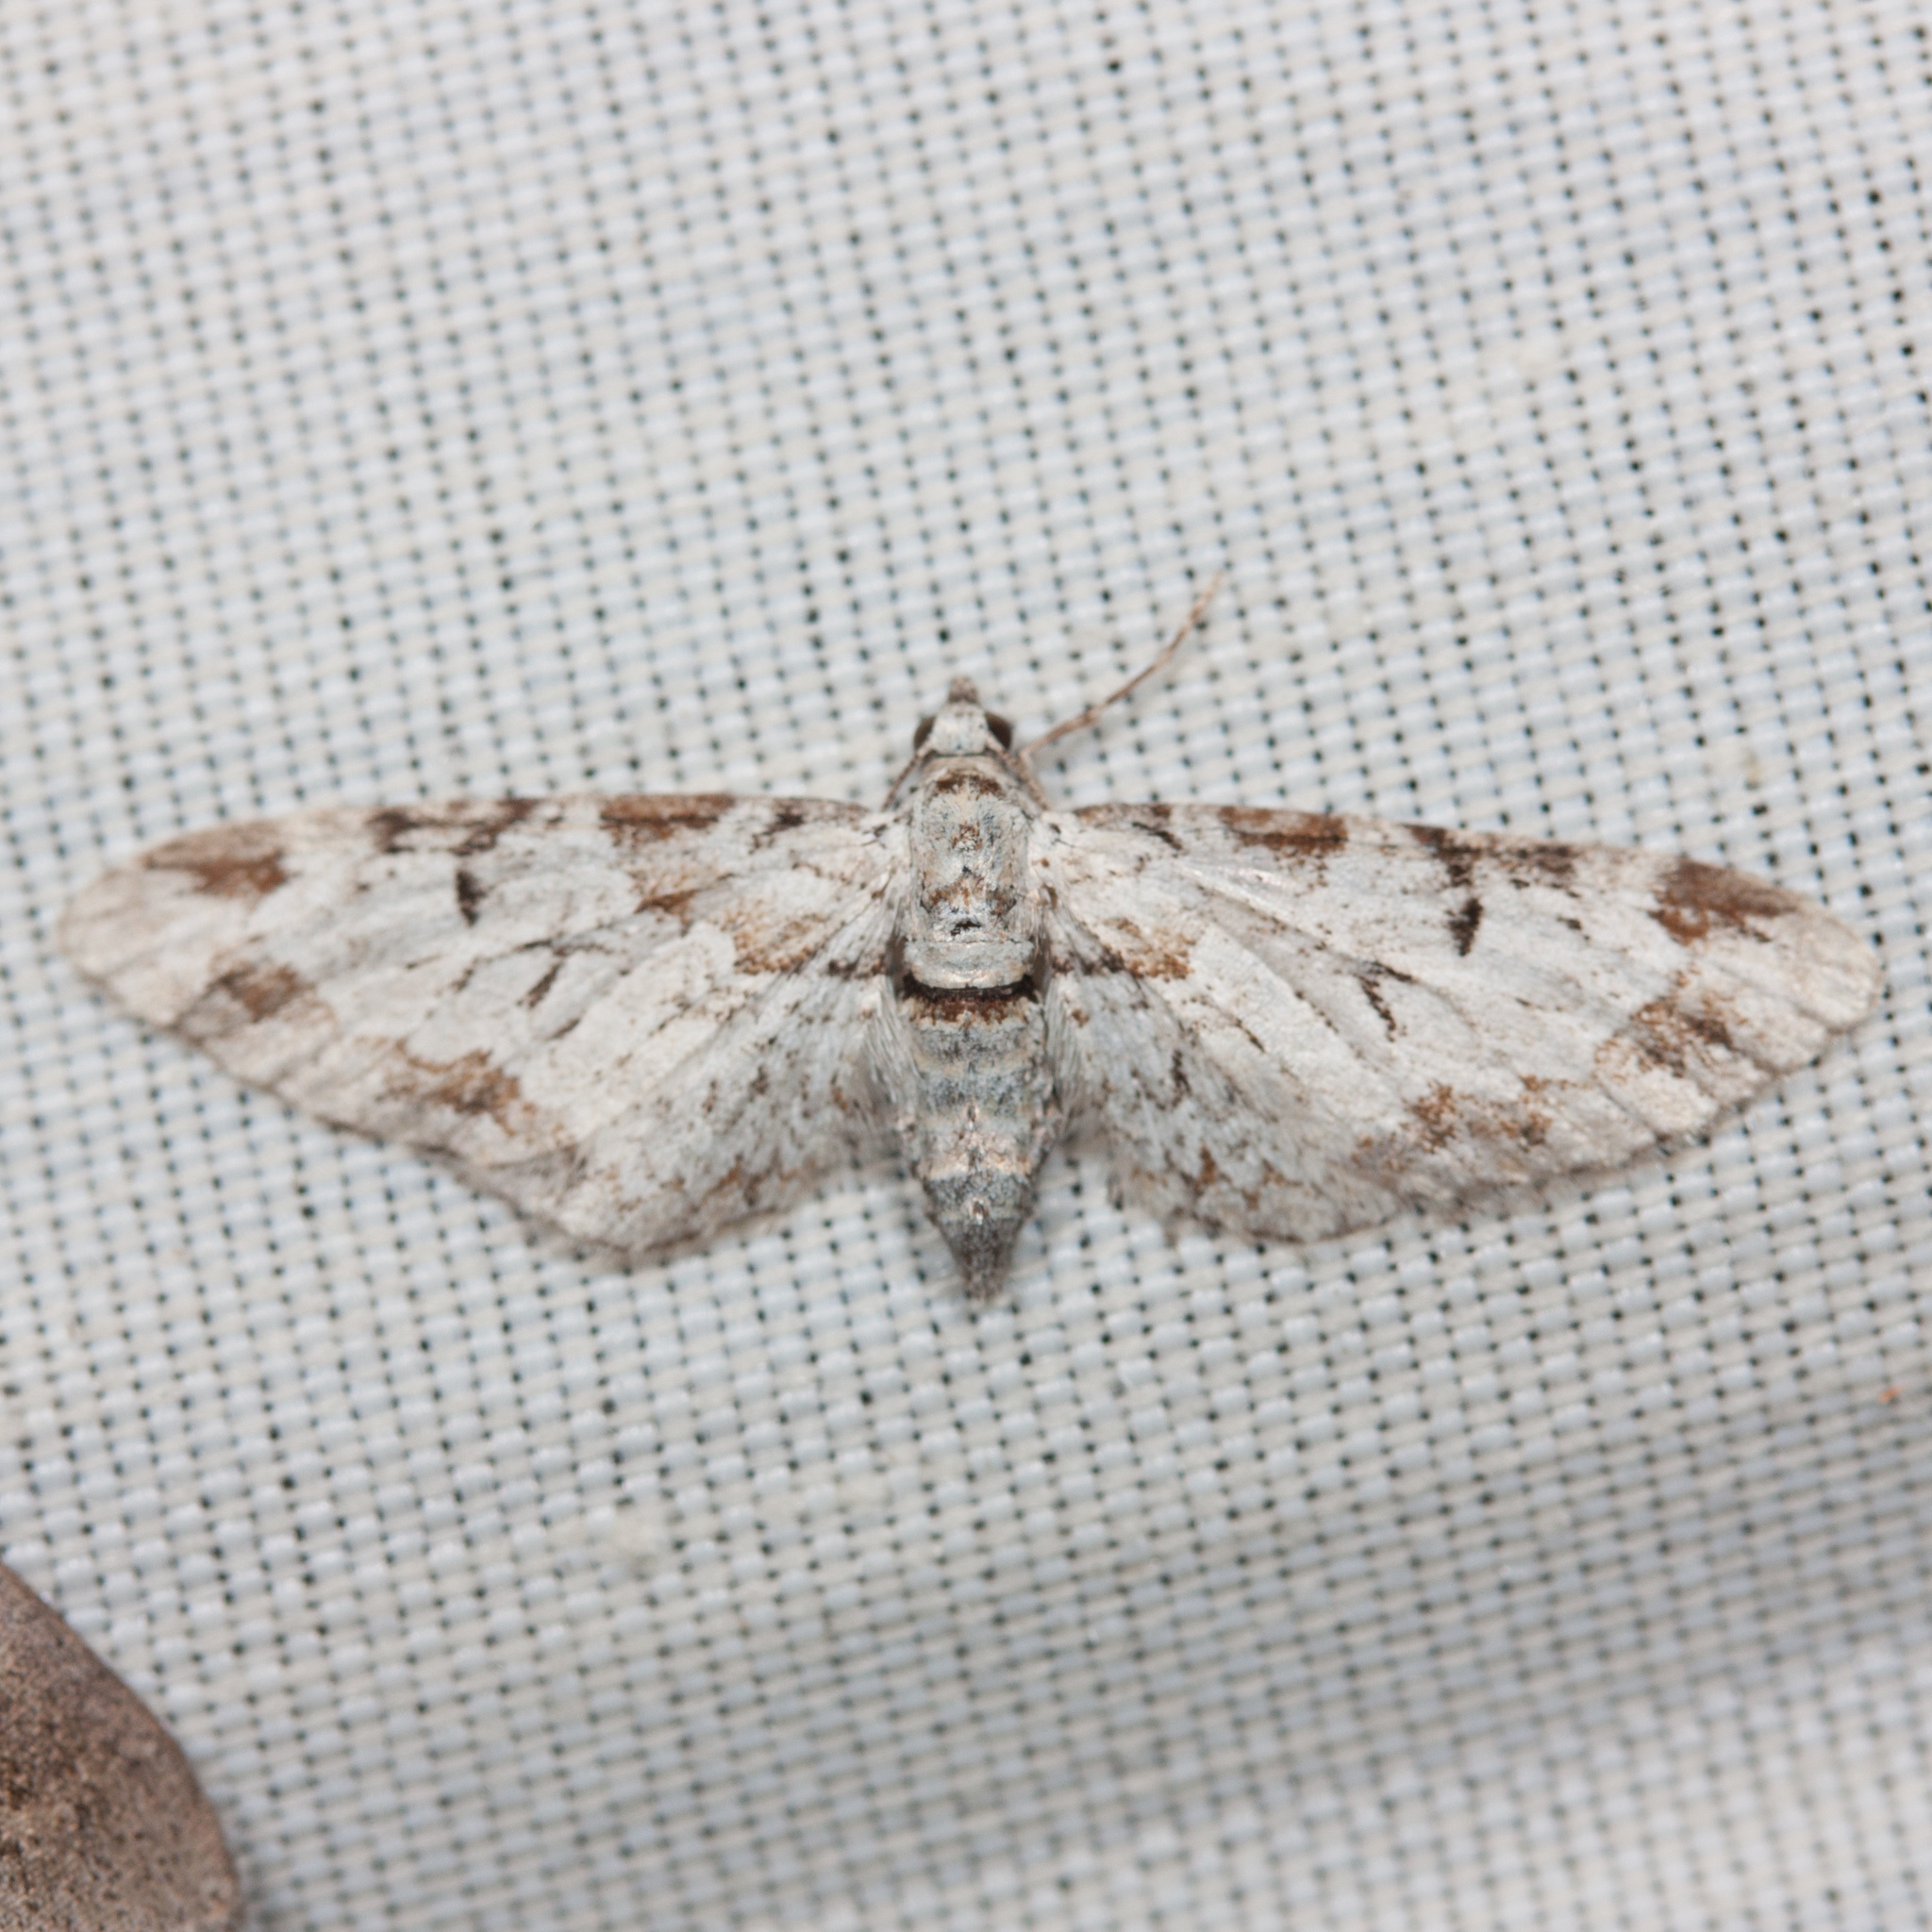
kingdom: Animalia
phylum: Arthropoda
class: Insecta
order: Lepidoptera
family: Geometridae
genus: Eupithecia
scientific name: Eupithecia zelmira
